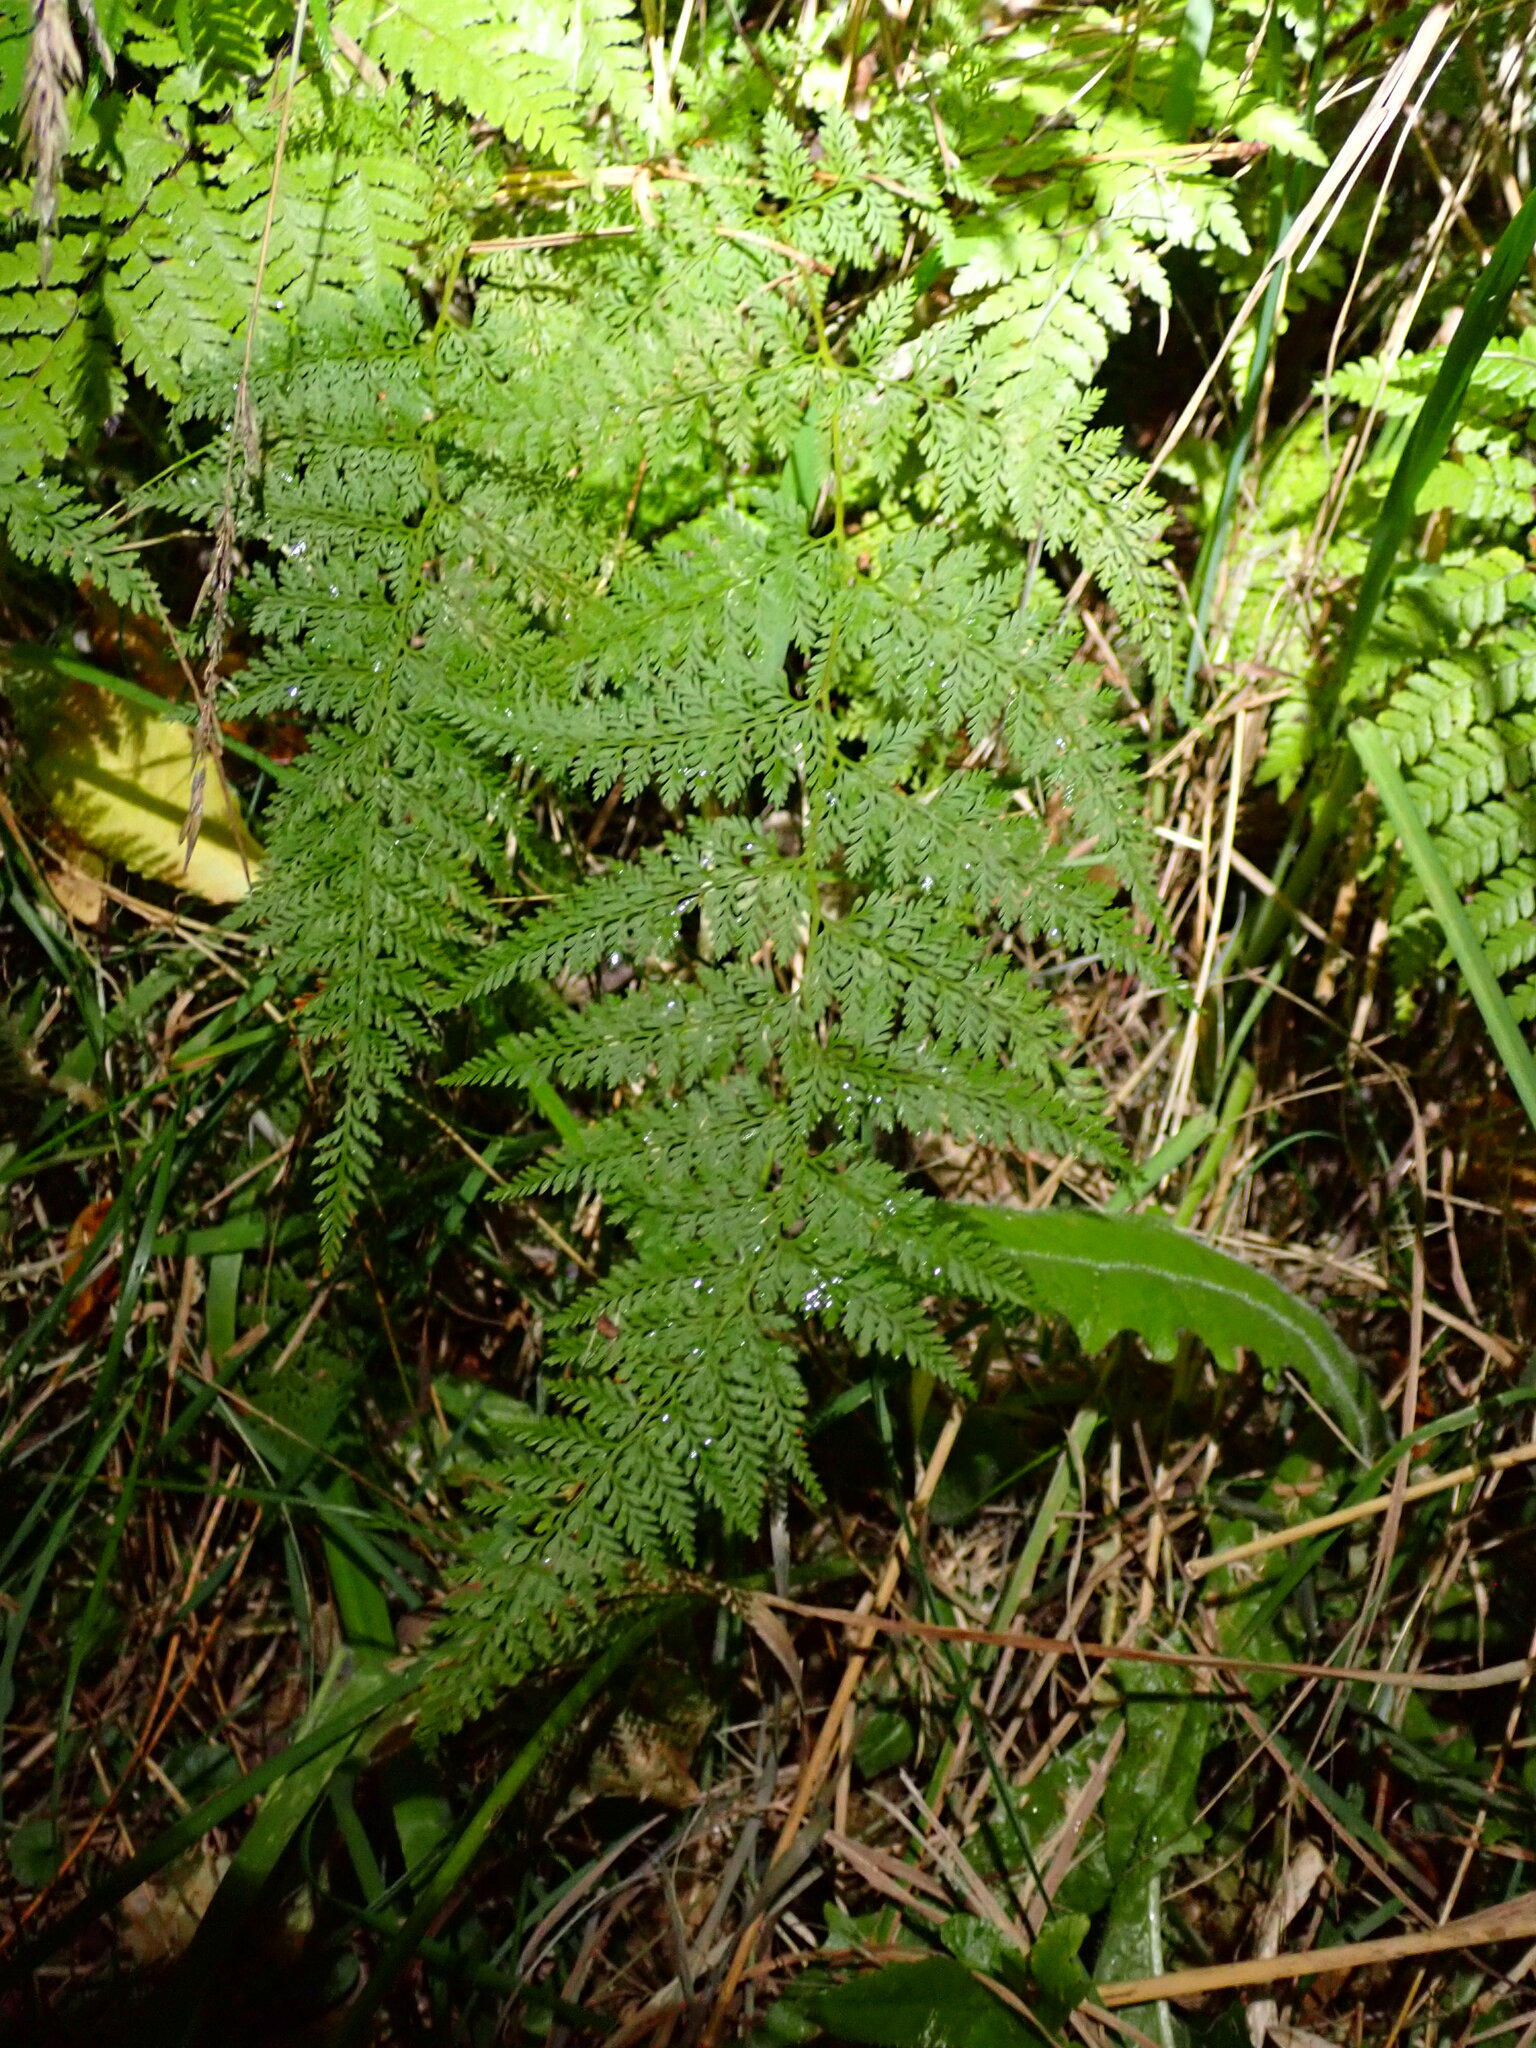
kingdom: Plantae
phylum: Tracheophyta
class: Polypodiopsida
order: Polypodiales
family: Dennstaedtiaceae
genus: Paesia
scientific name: Paesia scaberula
